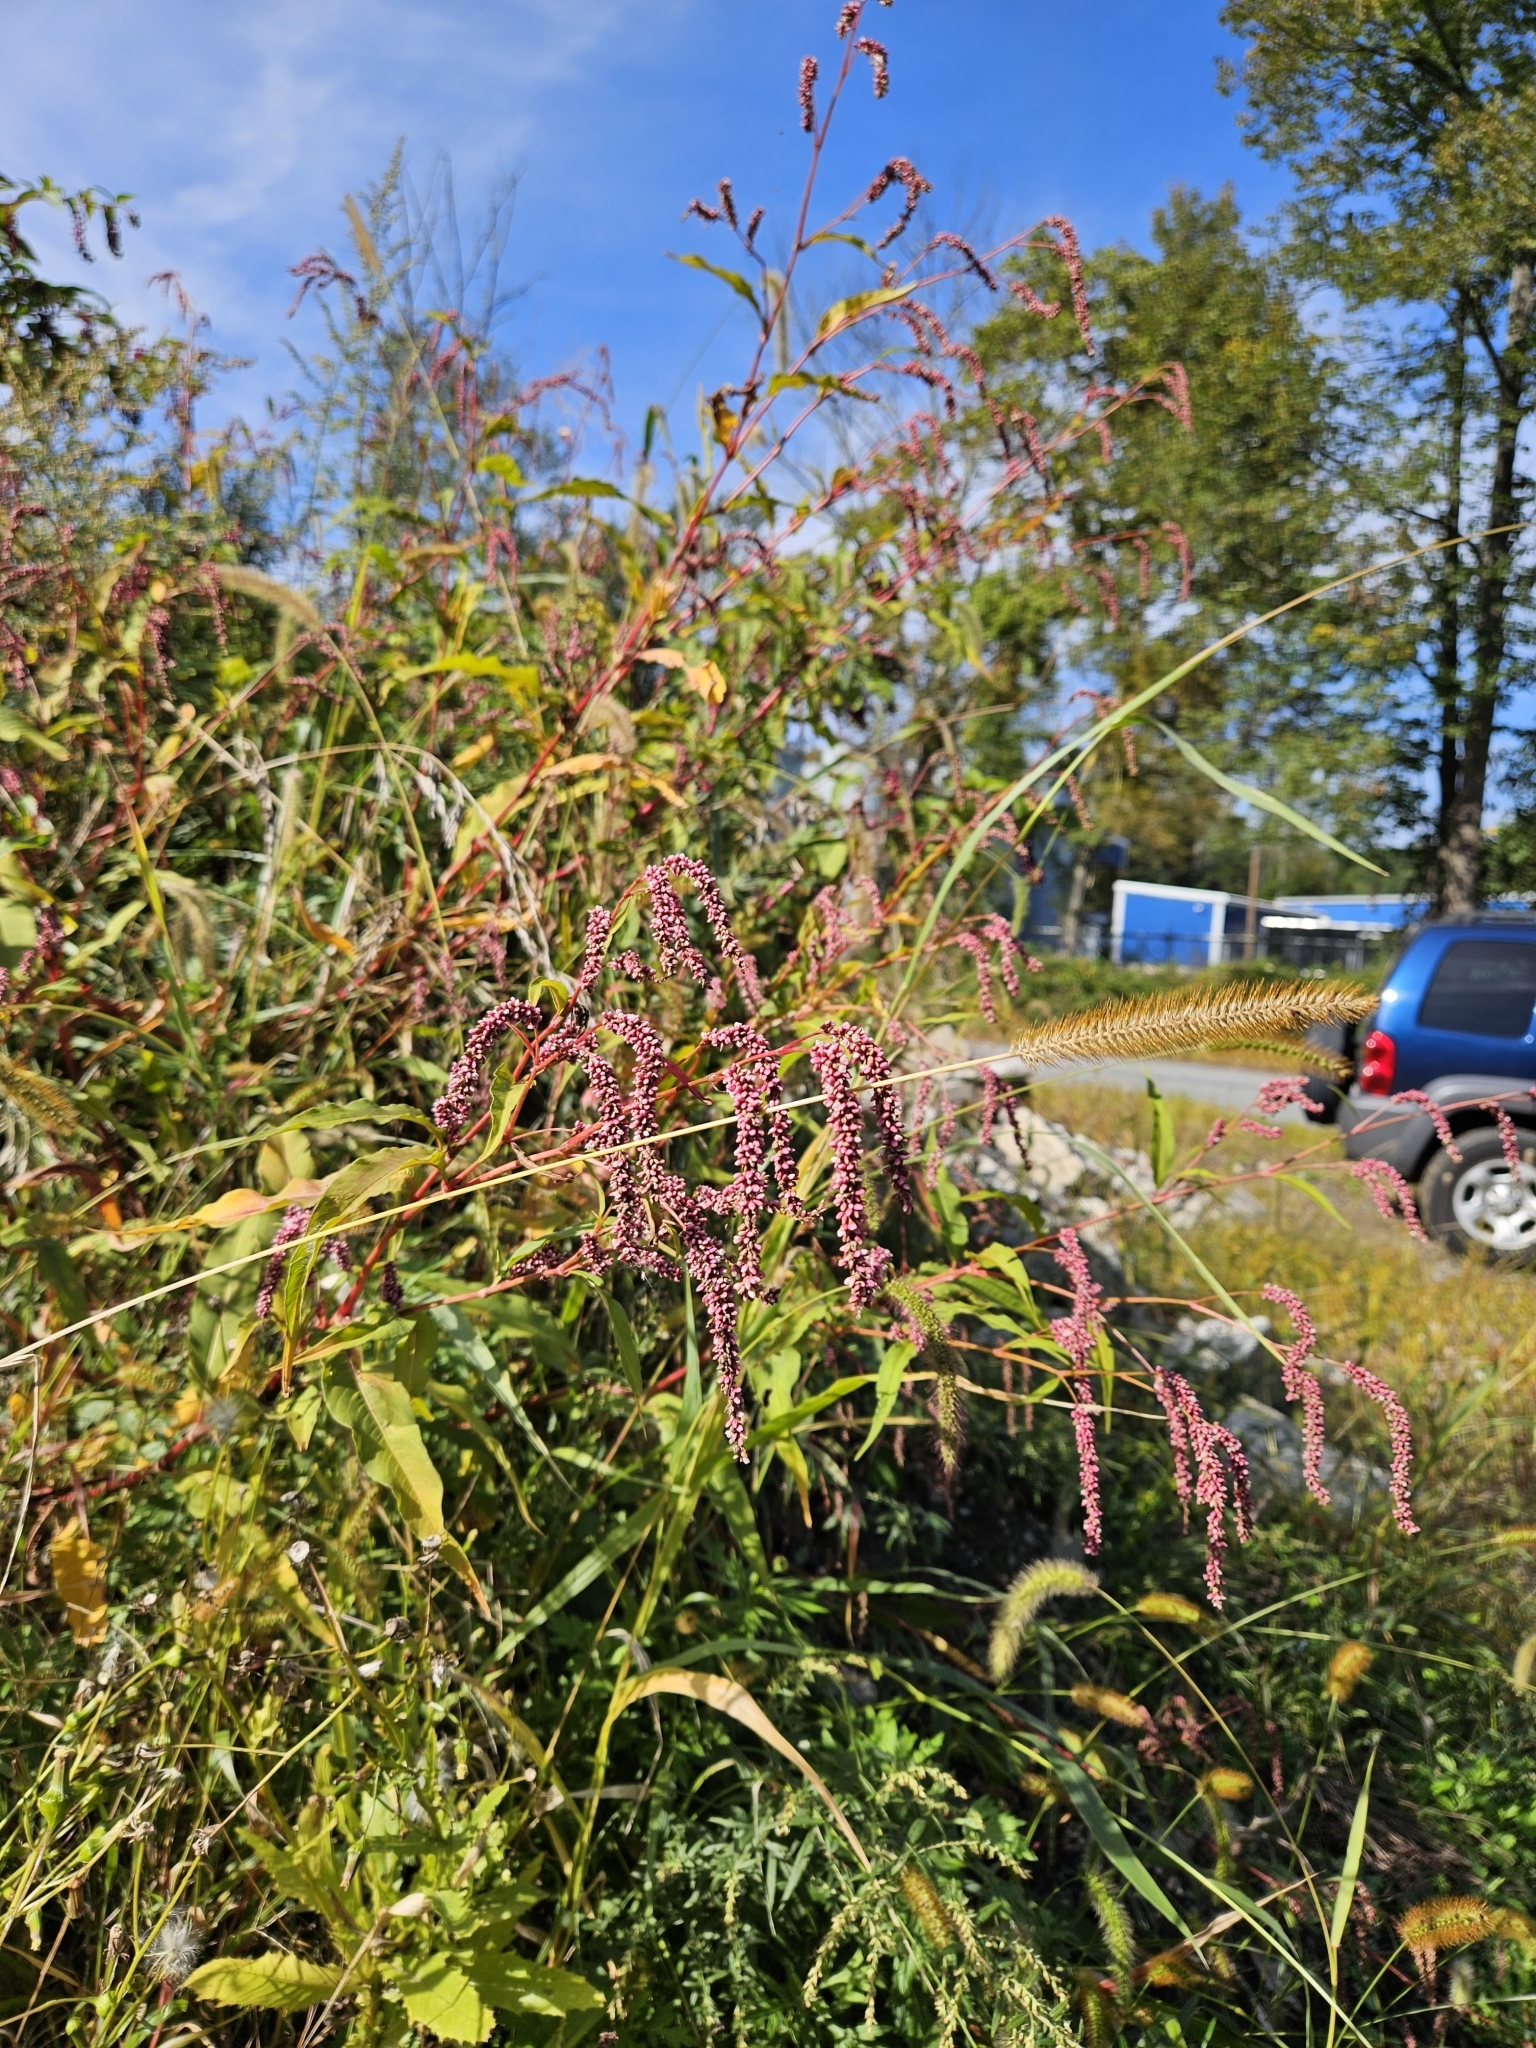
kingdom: Plantae
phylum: Tracheophyta
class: Magnoliopsida
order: Caryophyllales
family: Polygonaceae
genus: Persicaria
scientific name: Persicaria extremiorientalis
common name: Far-eastern smartweed
